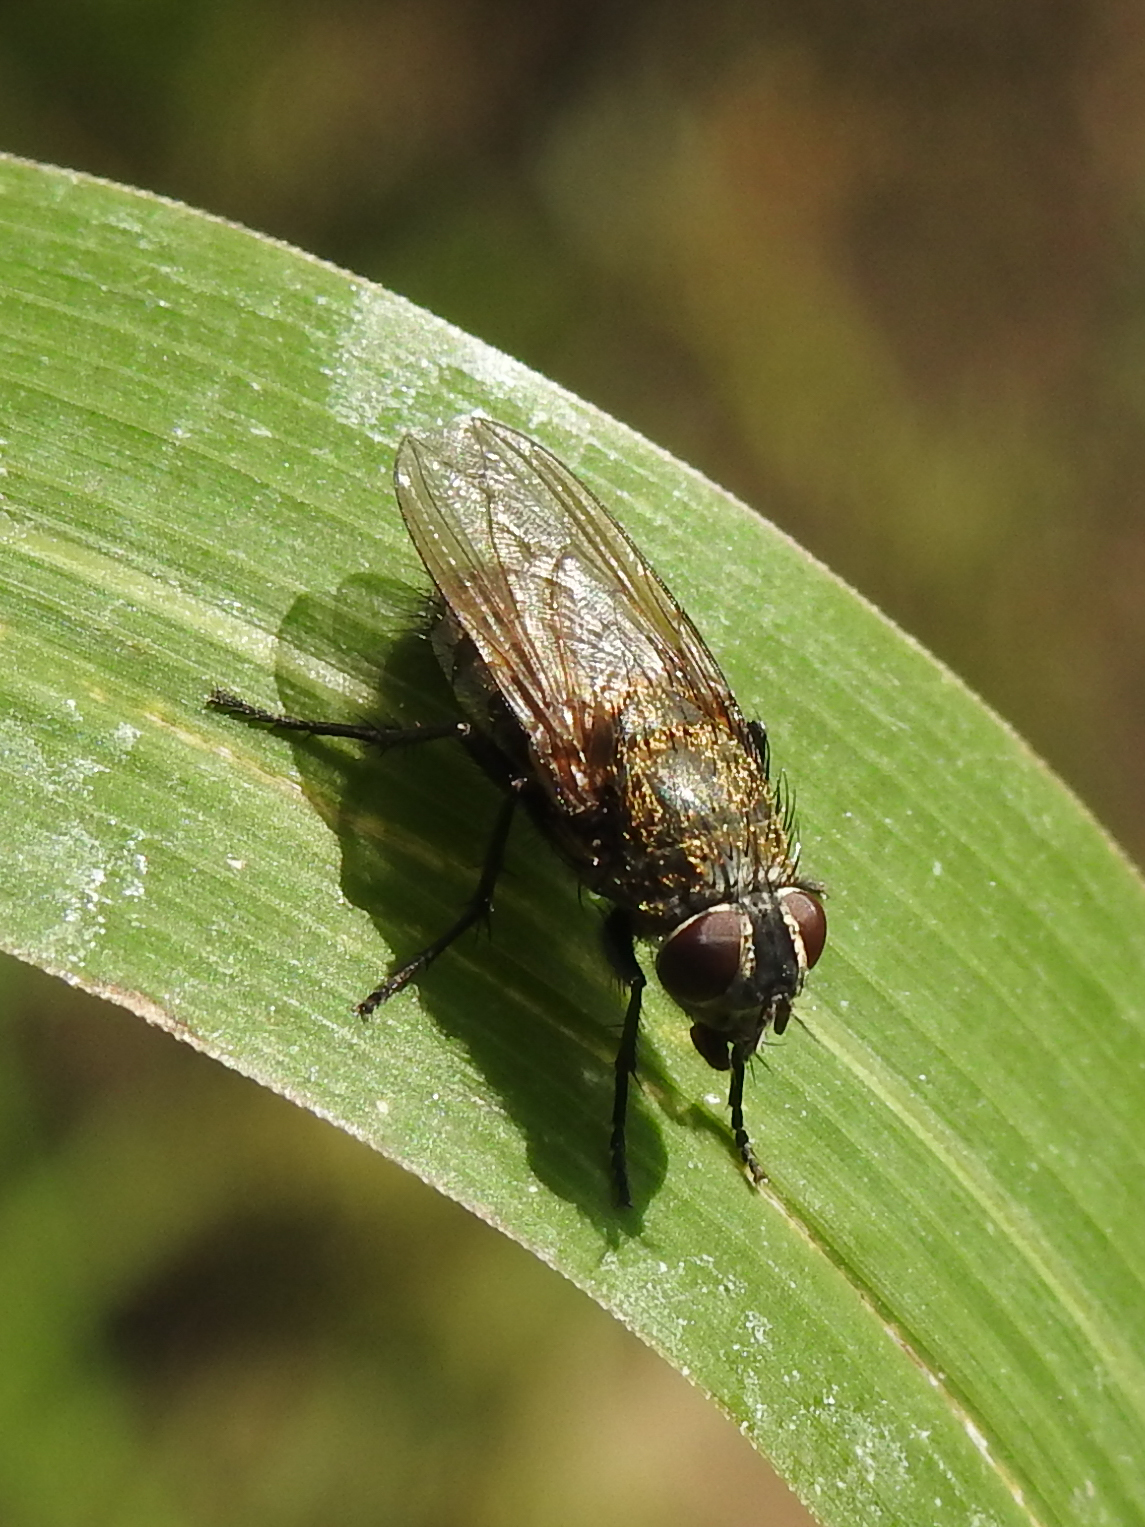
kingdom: Animalia
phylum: Arthropoda
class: Insecta
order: Diptera
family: Polleniidae
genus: Pollenia
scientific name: Pollenia
